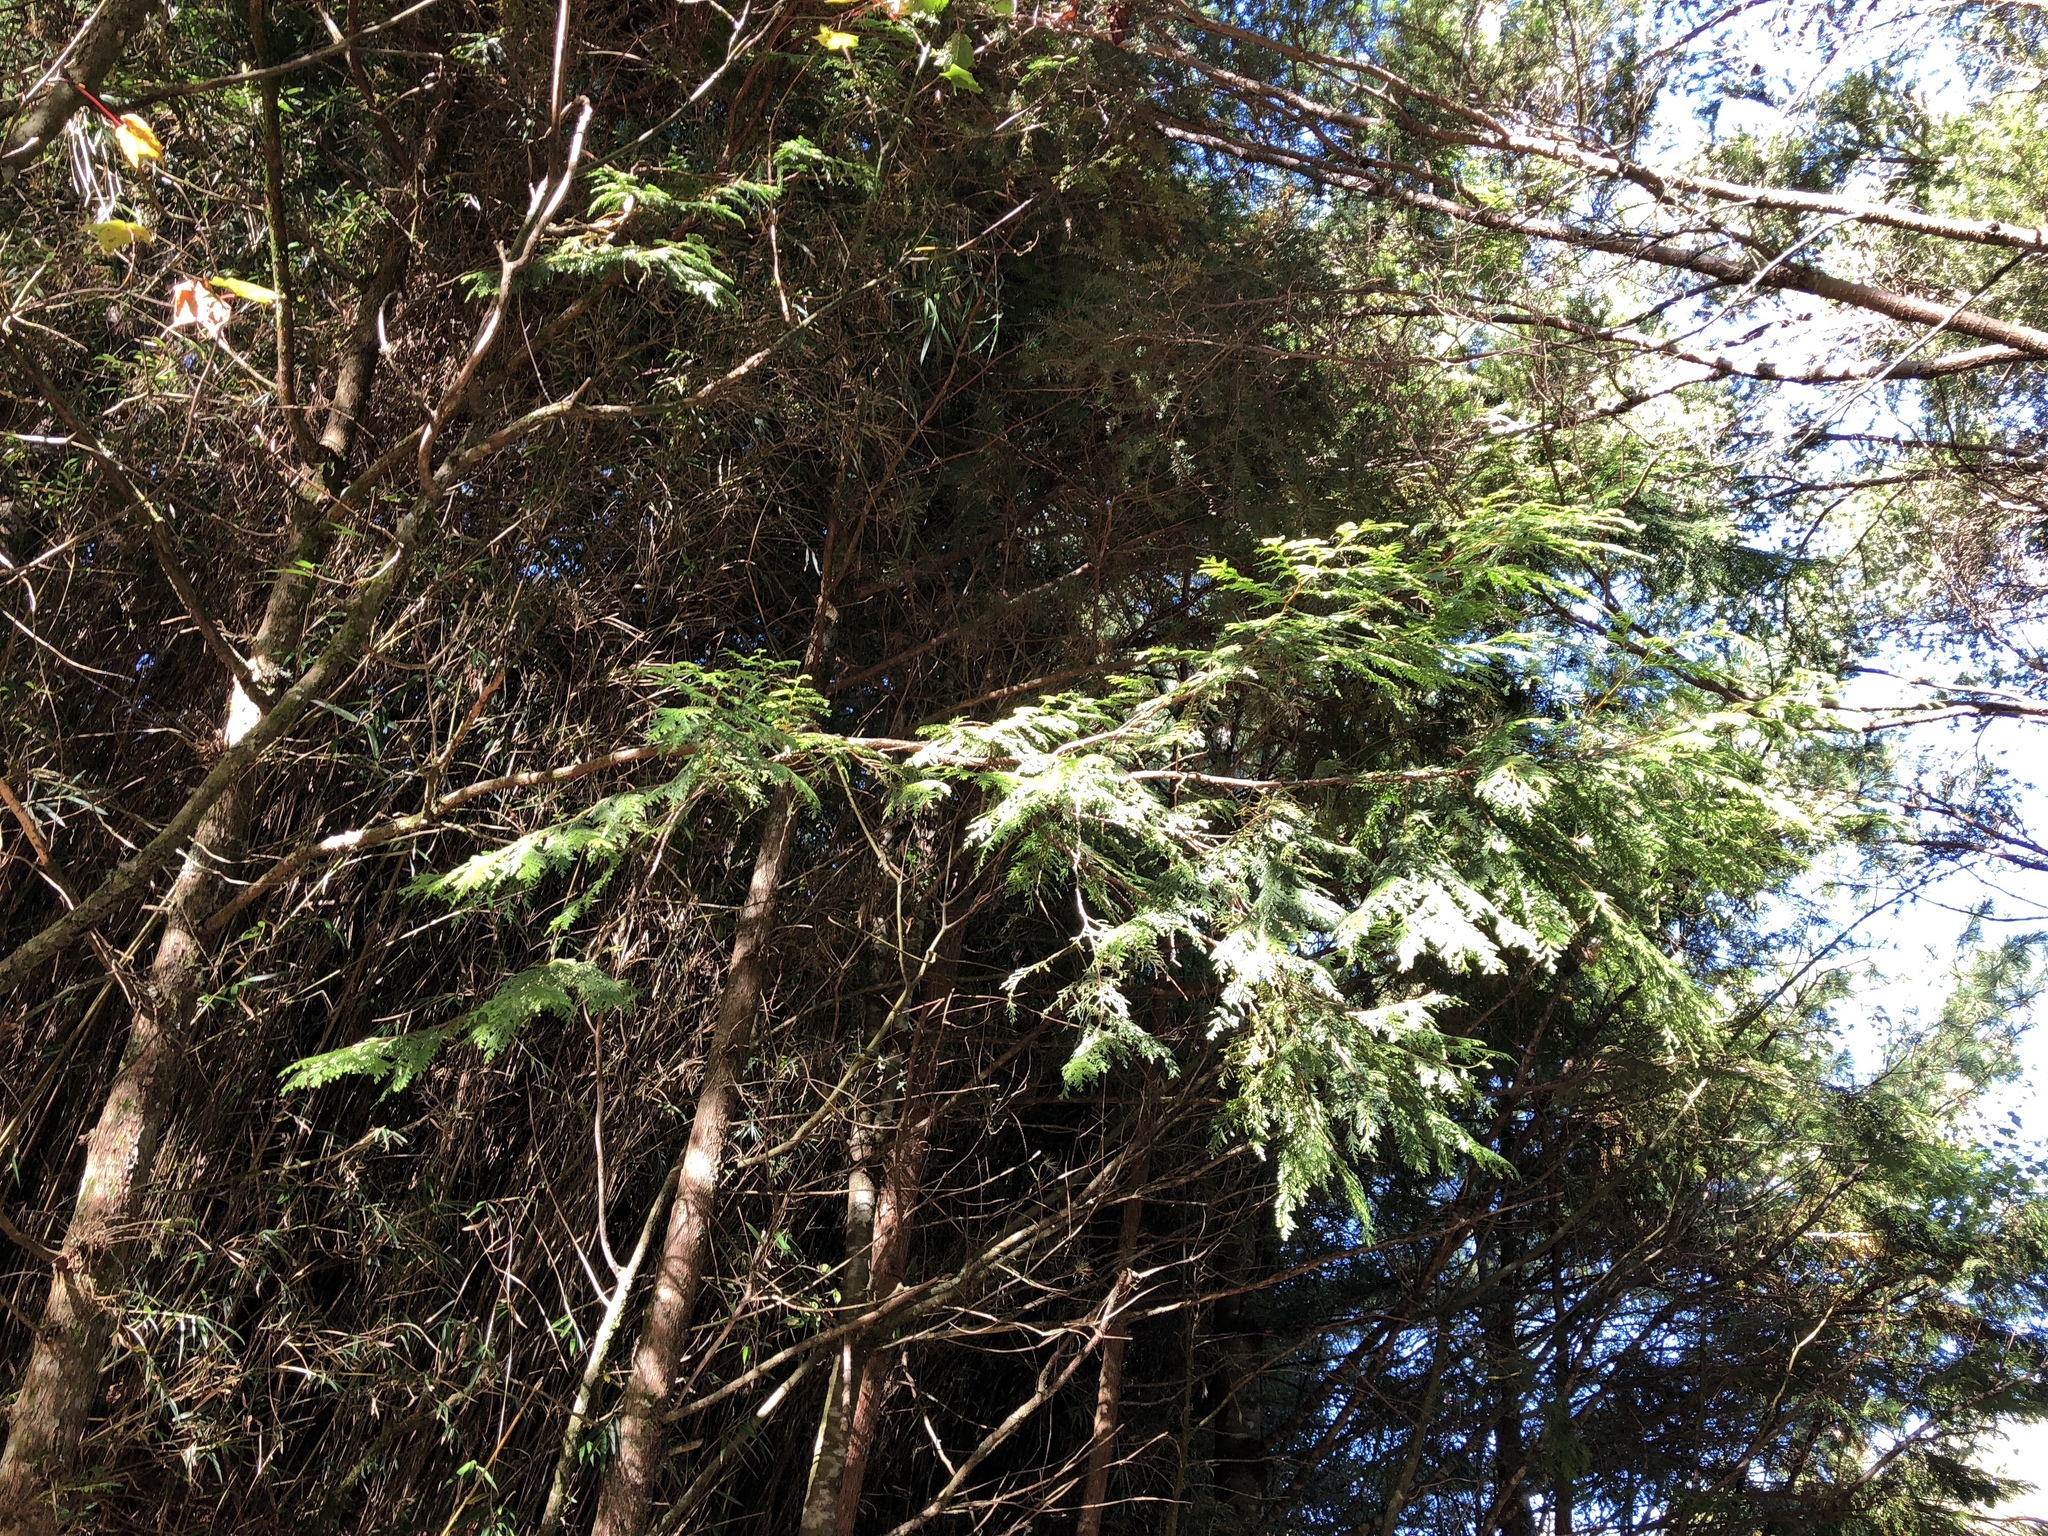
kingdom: Plantae
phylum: Tracheophyta
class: Pinopsida
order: Pinales
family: Cupressaceae
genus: Chamaecyparis
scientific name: Chamaecyparis formosensis
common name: Formosan cypress
